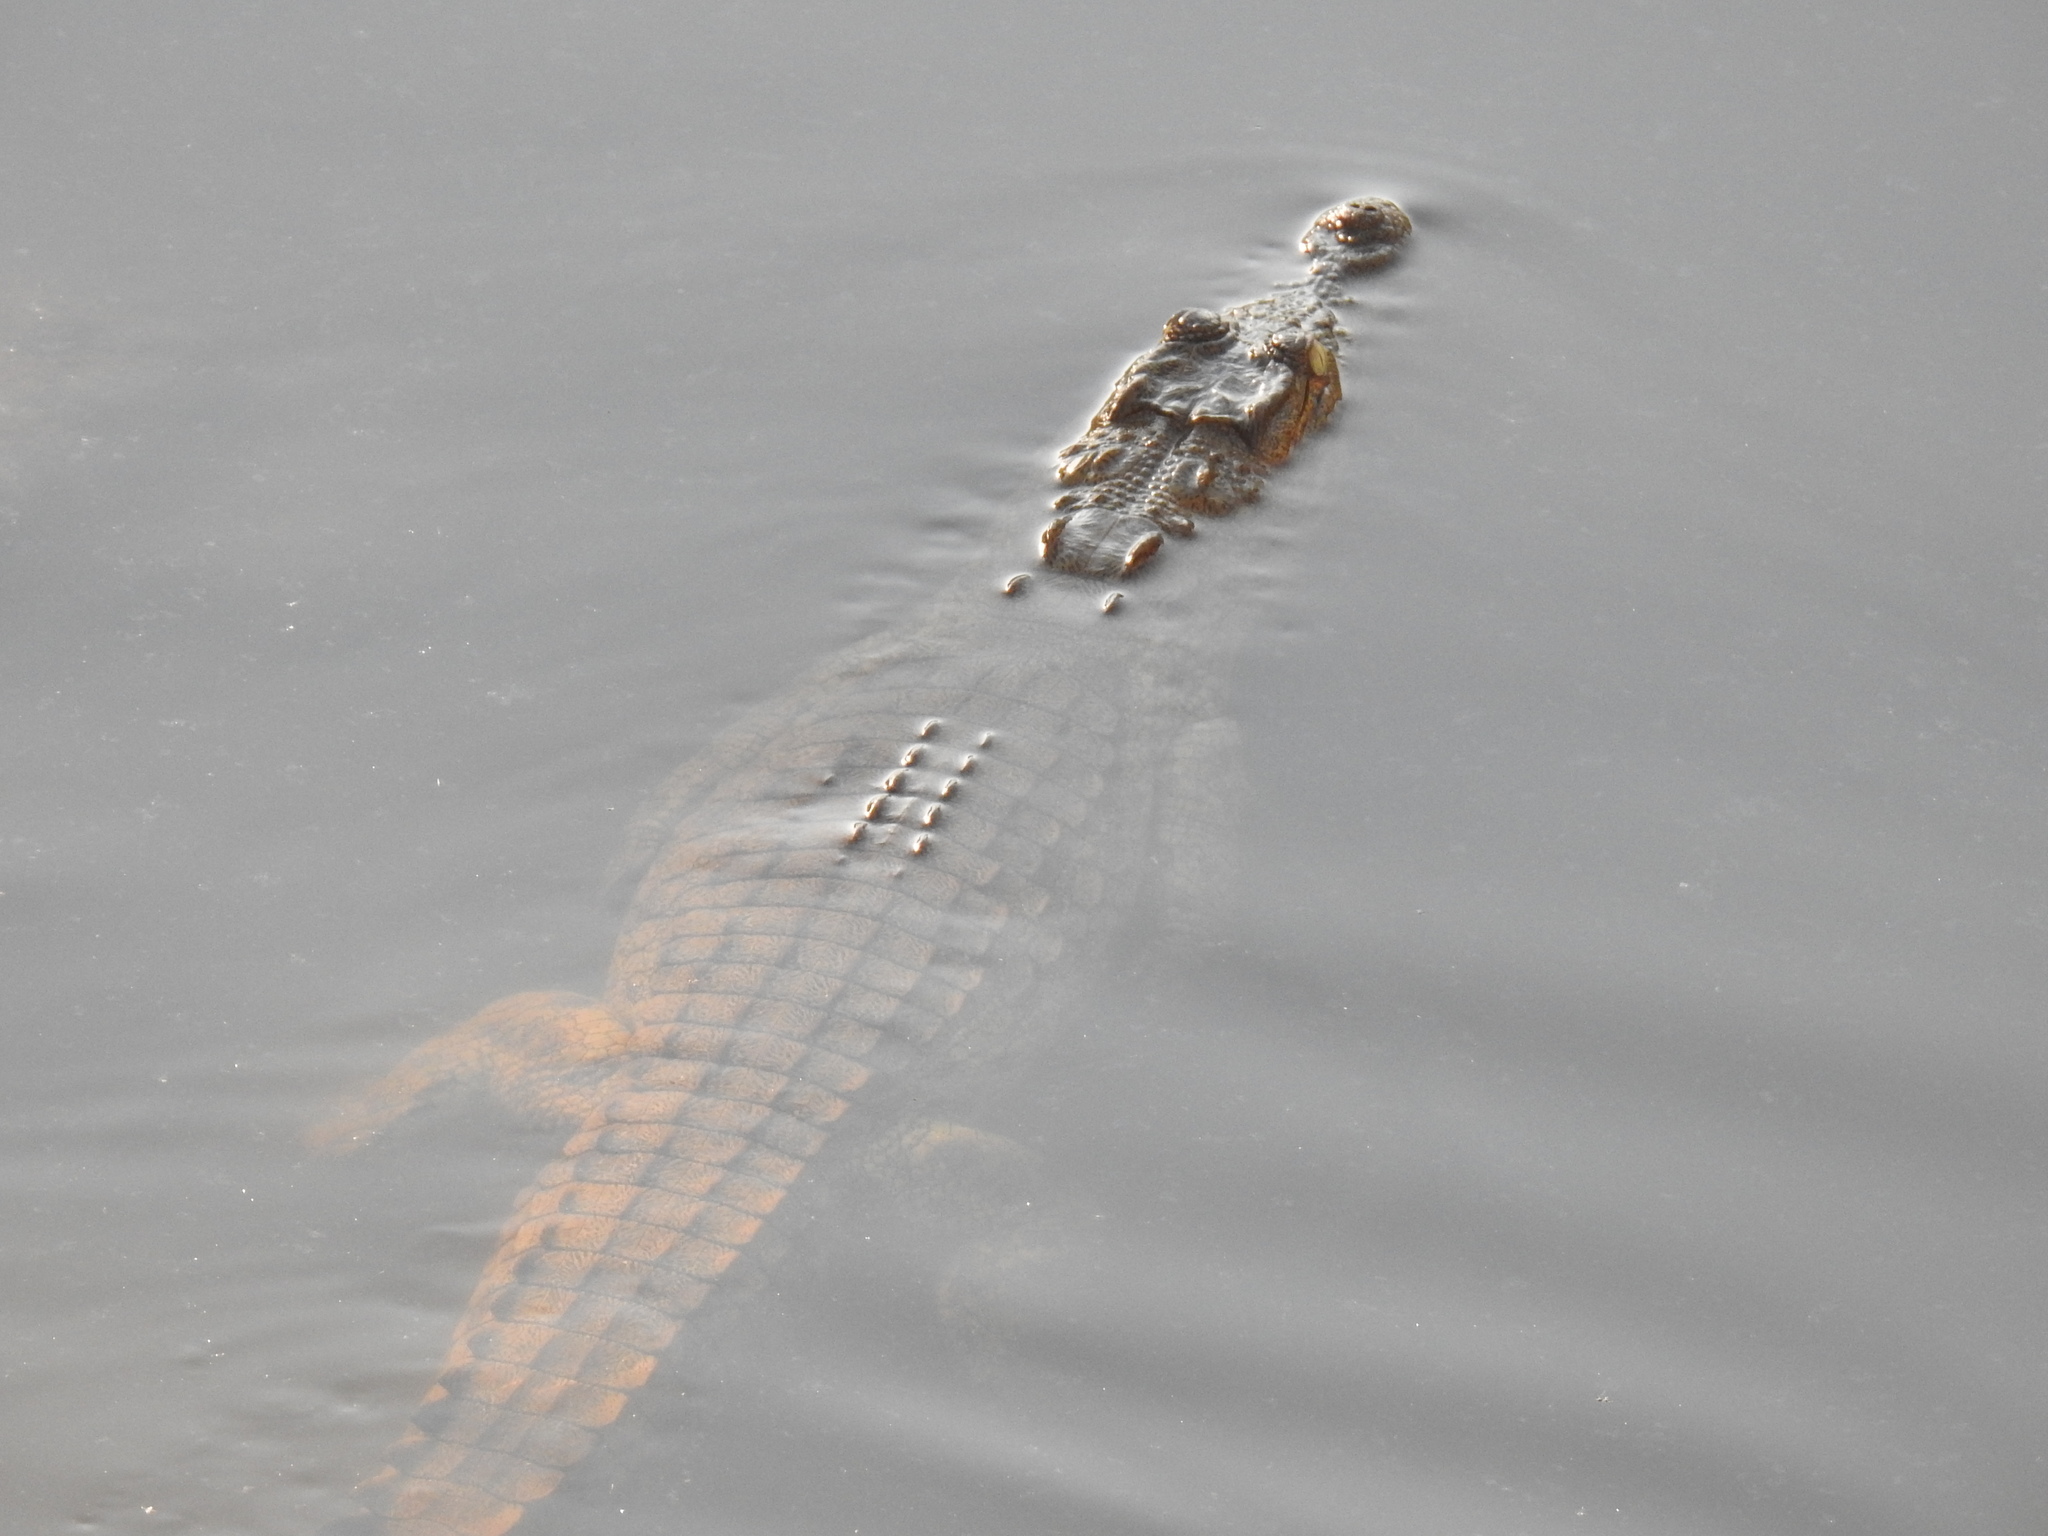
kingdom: Animalia
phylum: Chordata
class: Crocodylia
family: Crocodylidae
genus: Crocodylus
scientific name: Crocodylus niloticus
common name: Nile crocodile
